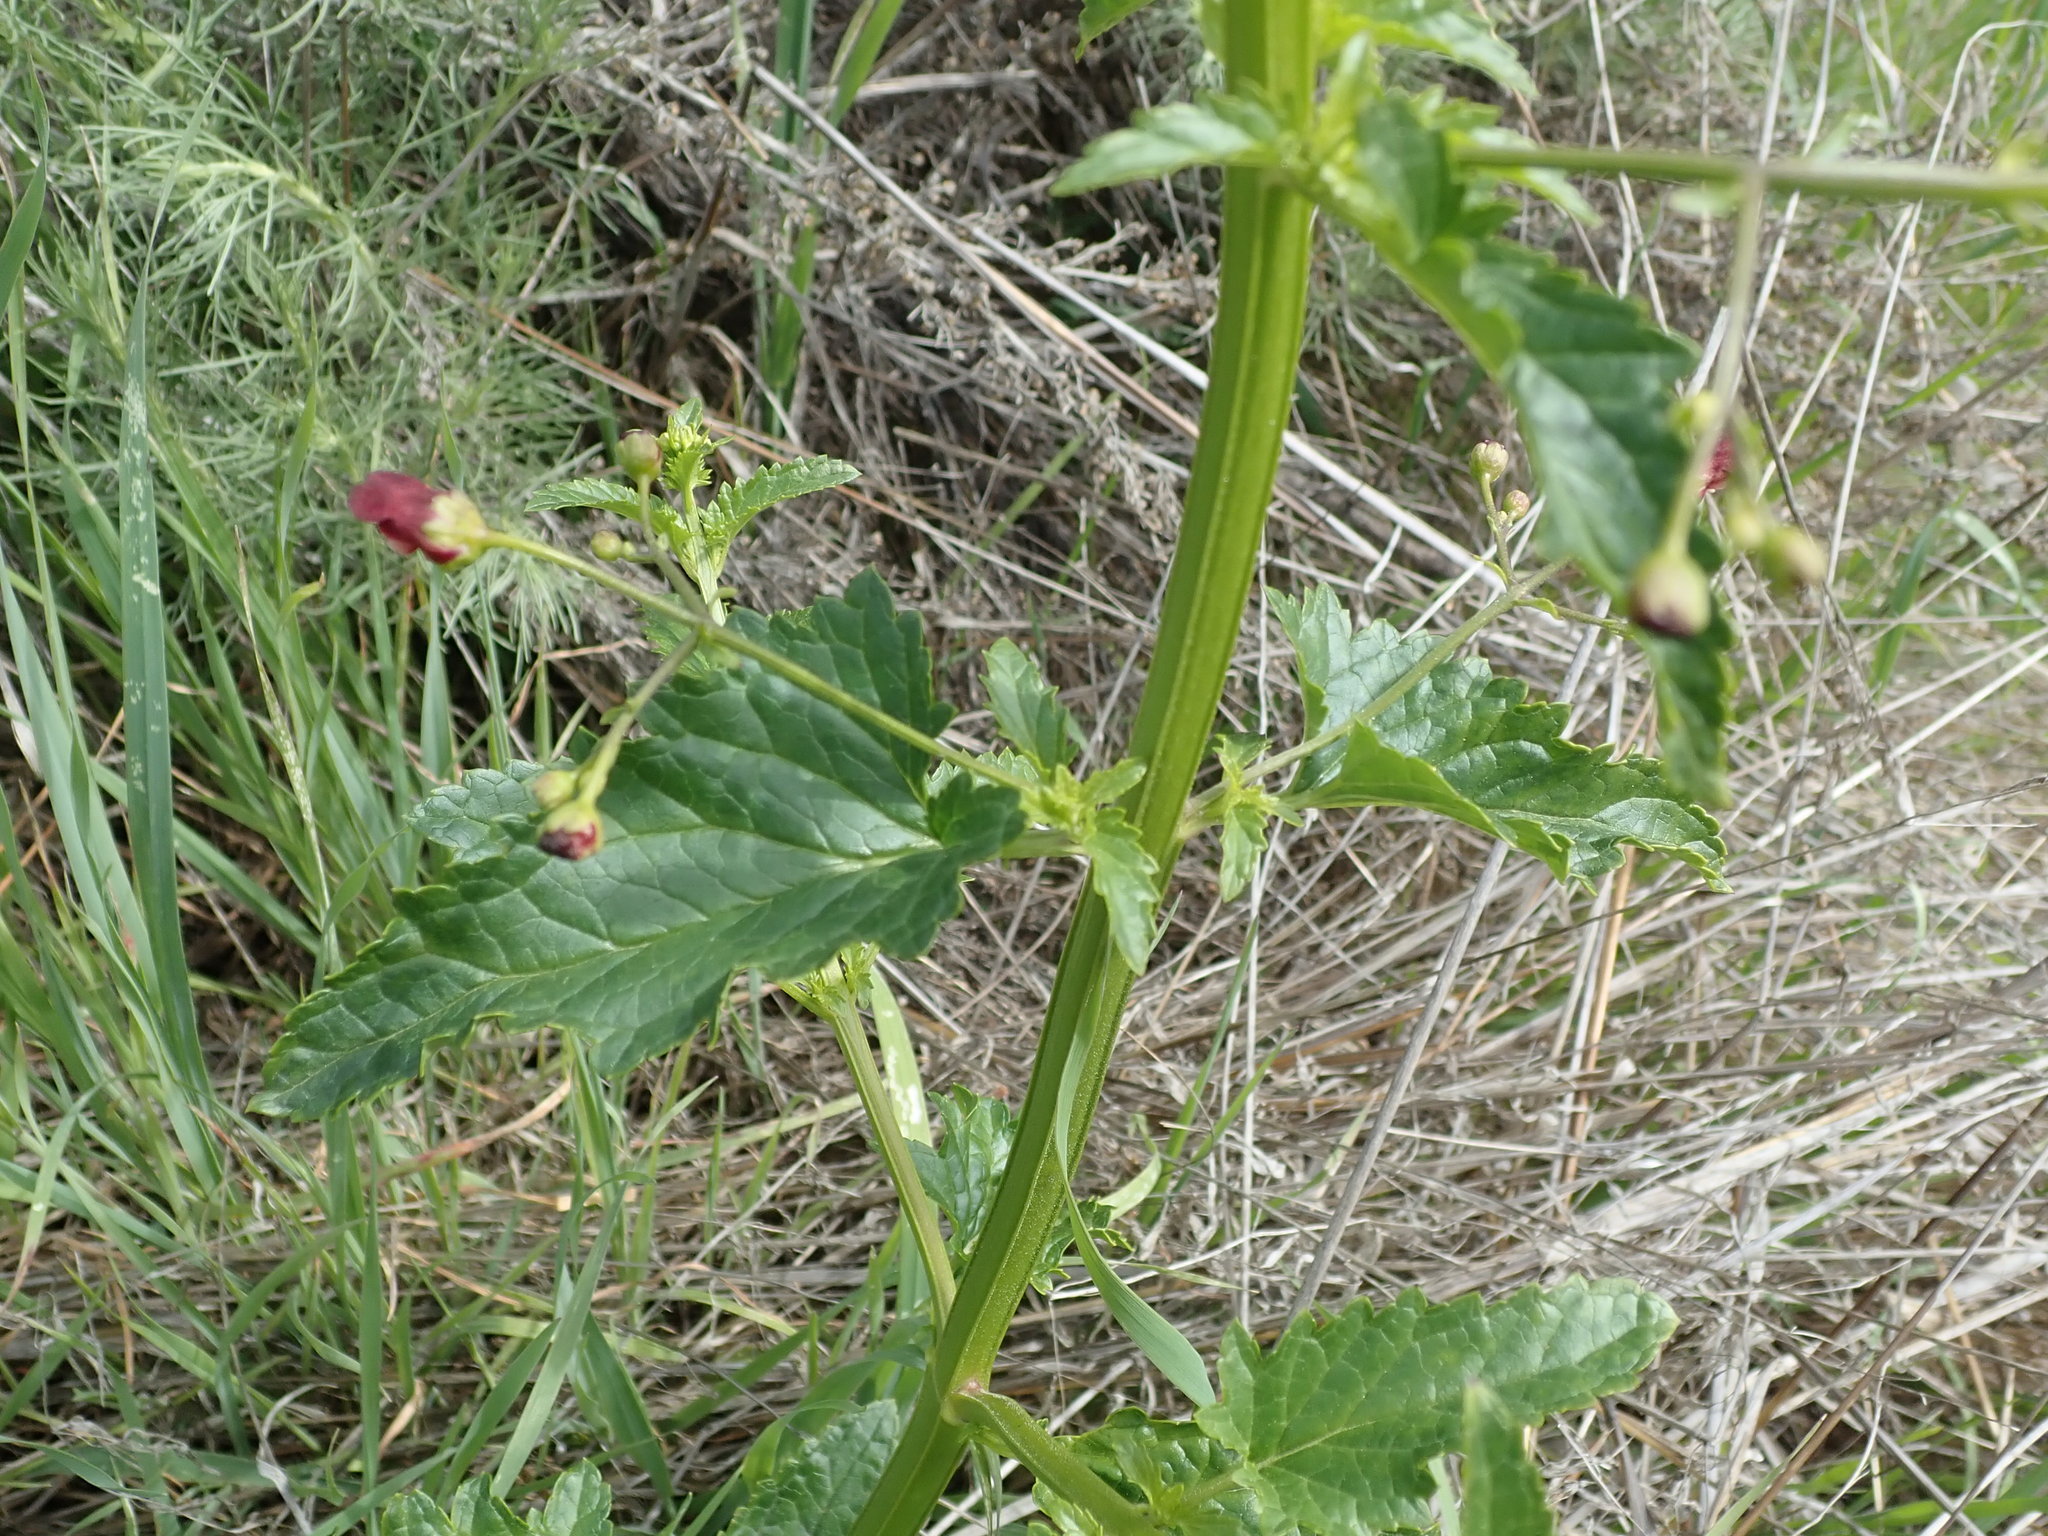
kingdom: Plantae
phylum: Tracheophyta
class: Magnoliopsida
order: Lamiales
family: Scrophulariaceae
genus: Scrophularia
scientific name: Scrophularia californica
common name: California figwort
